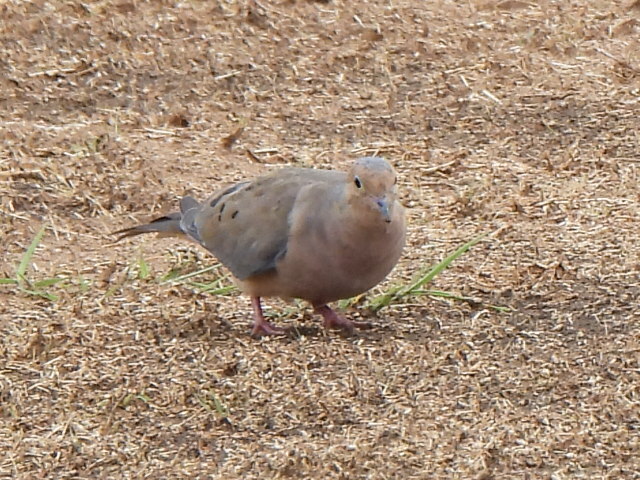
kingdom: Animalia
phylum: Chordata
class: Aves
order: Columbiformes
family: Columbidae
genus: Zenaida
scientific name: Zenaida macroura
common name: Mourning dove
